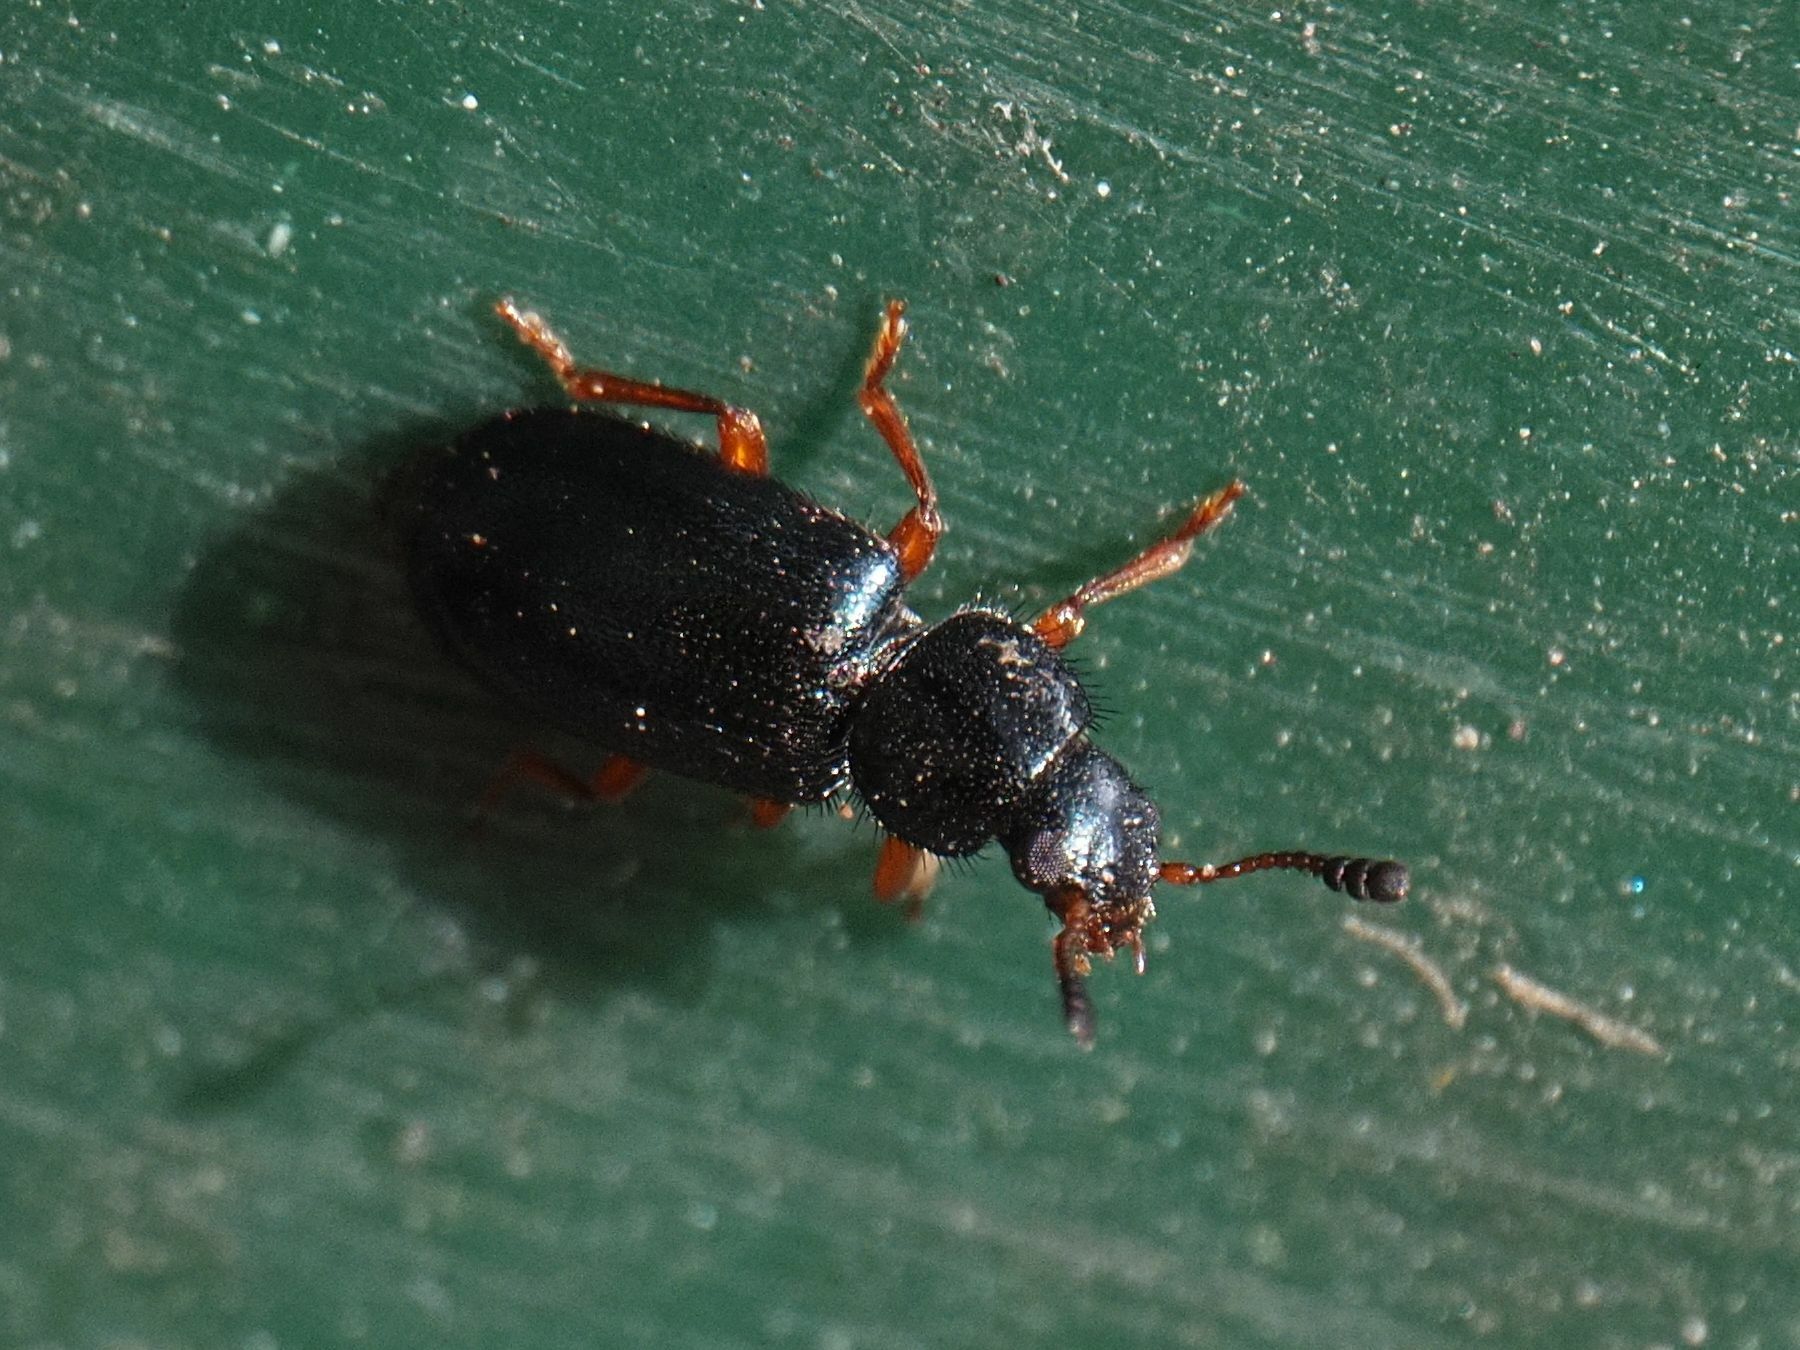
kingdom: Animalia
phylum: Arthropoda
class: Insecta
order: Coleoptera
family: Cleridae
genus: Necrobia
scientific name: Necrobia rufipes
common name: Red-legged ham beetle
